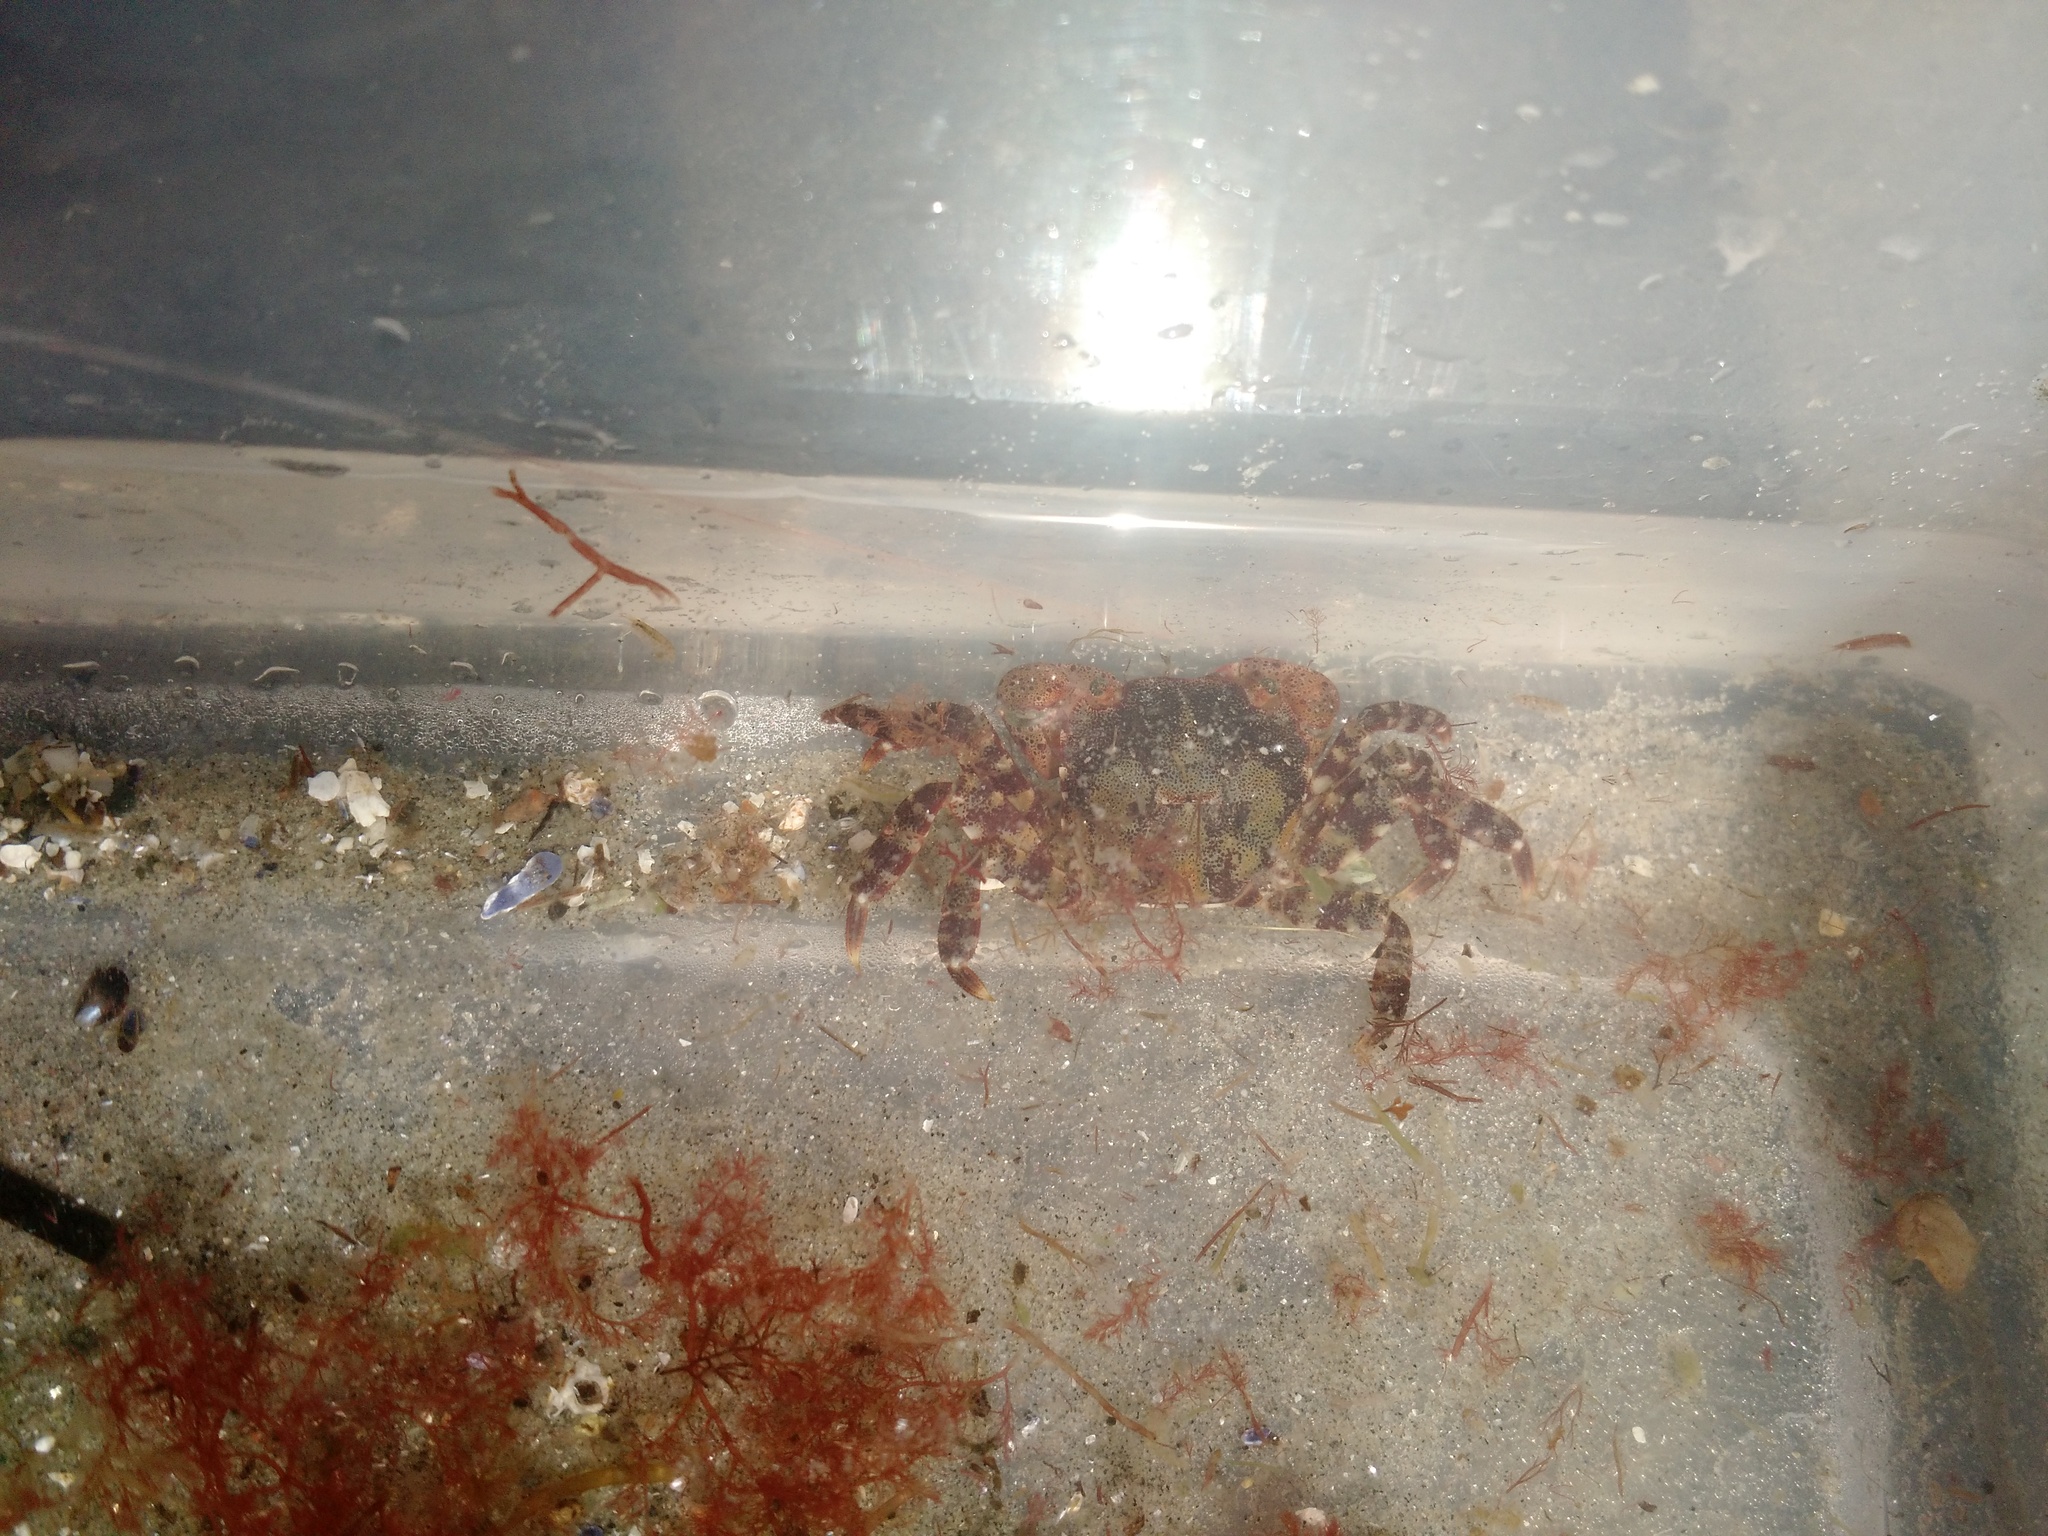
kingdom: Animalia
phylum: Arthropoda
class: Malacostraca
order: Decapoda
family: Varunidae
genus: Hemigrapsus
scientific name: Hemigrapsus sanguineus
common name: Asian shore crab
